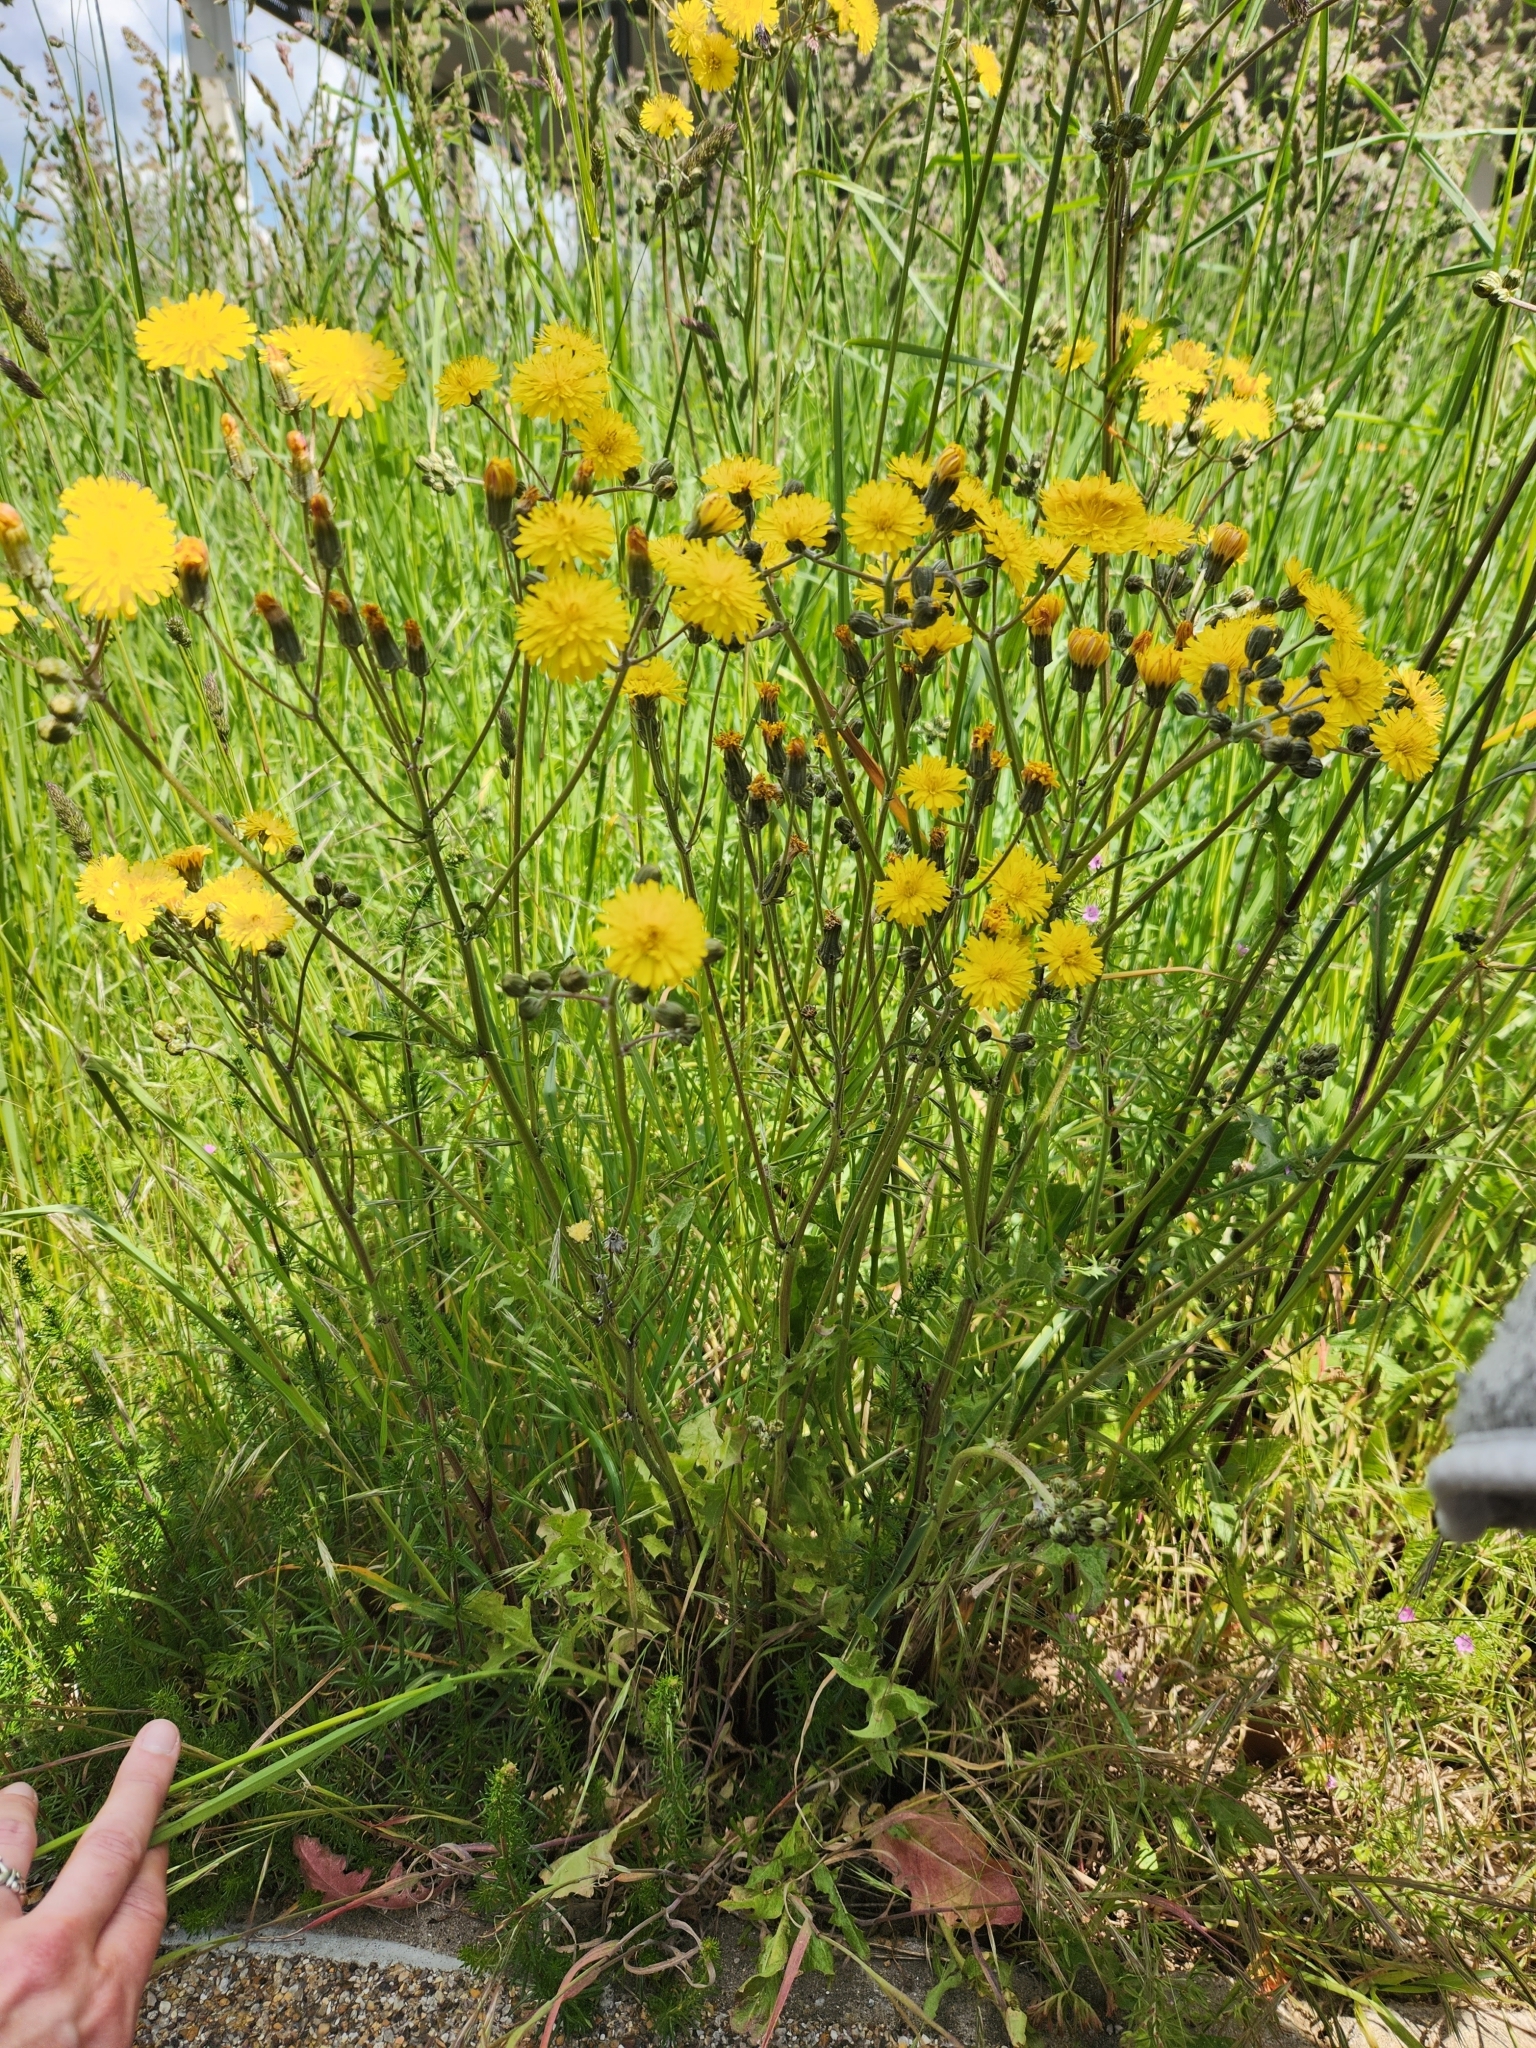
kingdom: Plantae
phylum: Tracheophyta
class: Magnoliopsida
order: Asterales
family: Asteraceae
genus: Crepis
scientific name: Crepis vesicaria
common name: Beaked hawksbeard
